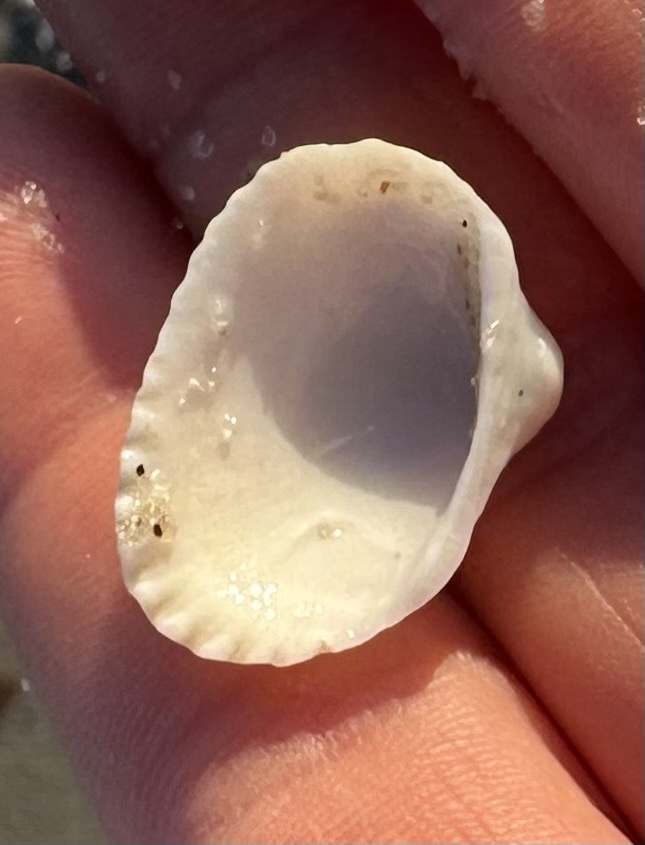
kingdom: Animalia
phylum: Mollusca
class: Bivalvia
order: Arcida
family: Arcidae
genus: Anadara
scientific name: Anadara transversa
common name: Transverse ark
